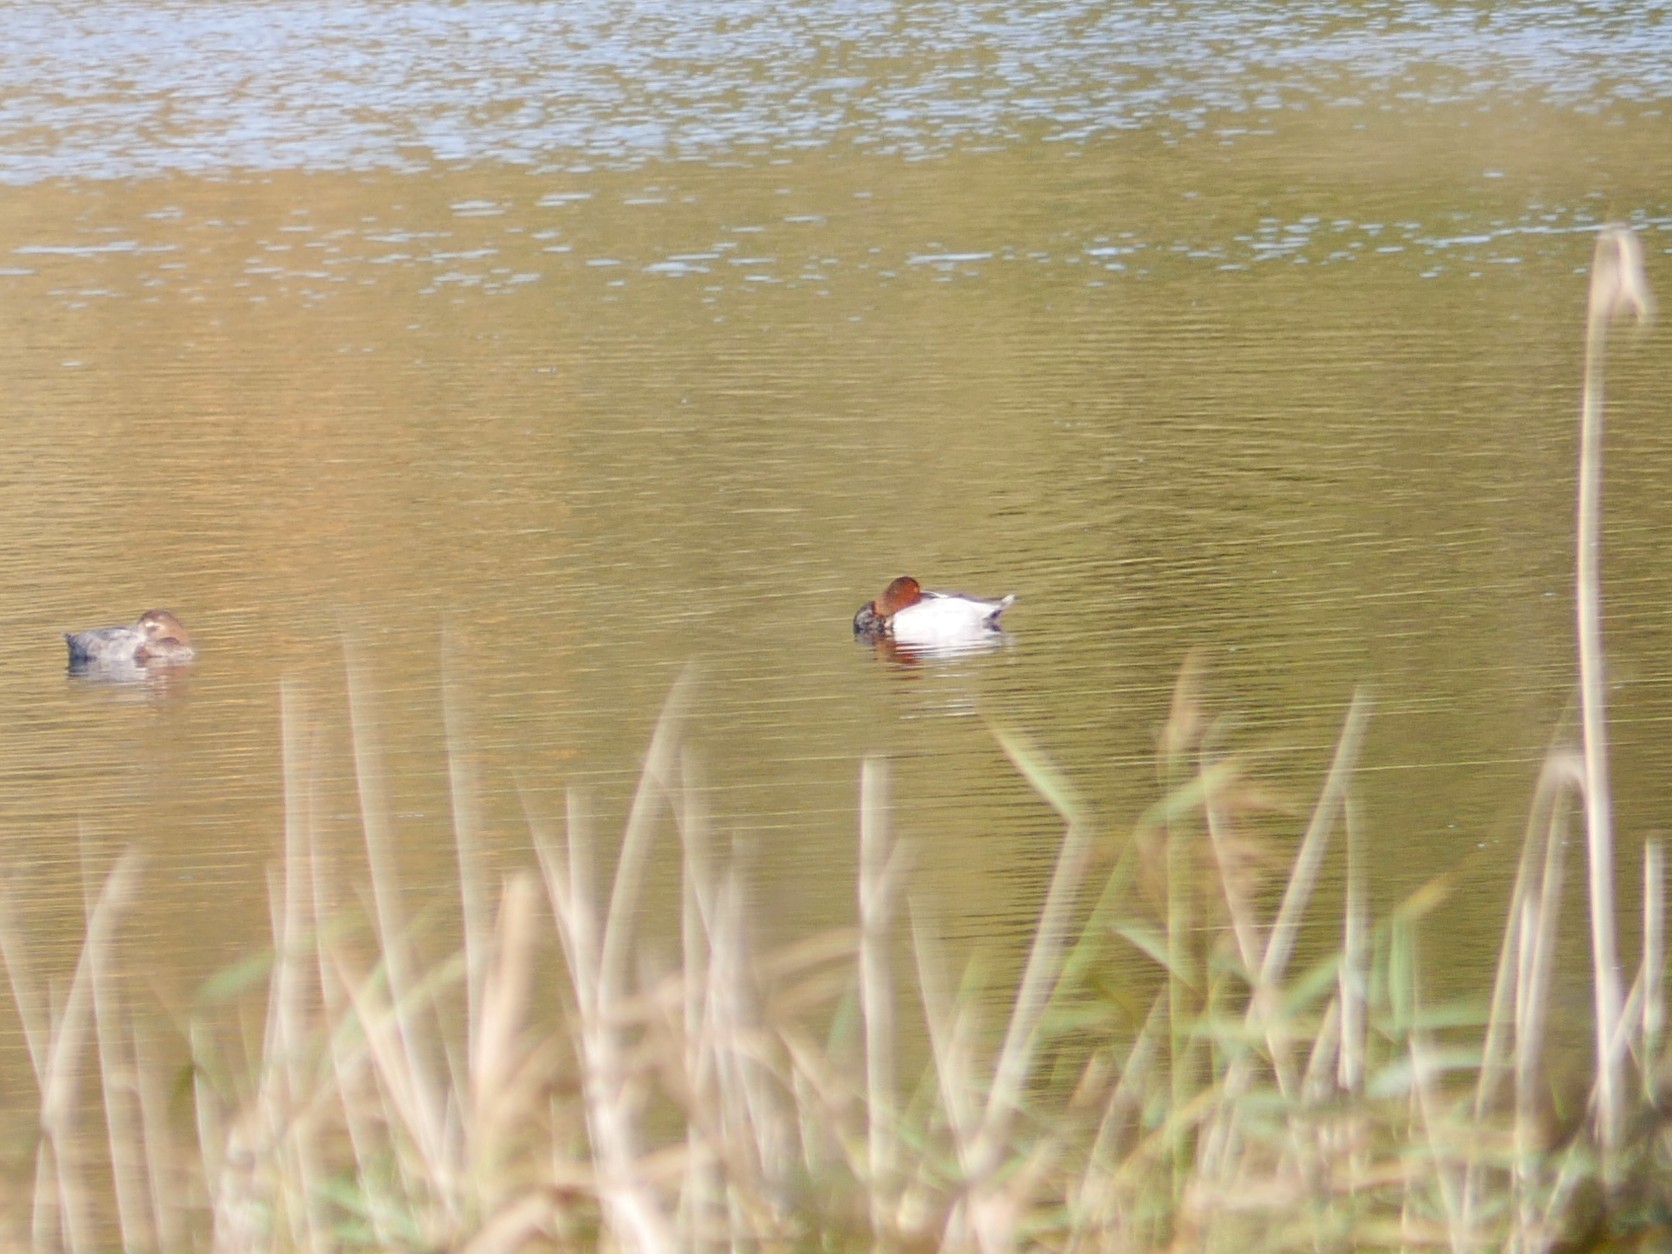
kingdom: Animalia
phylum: Chordata
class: Aves
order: Anseriformes
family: Anatidae
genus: Aythya
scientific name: Aythya ferina
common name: Common pochard
